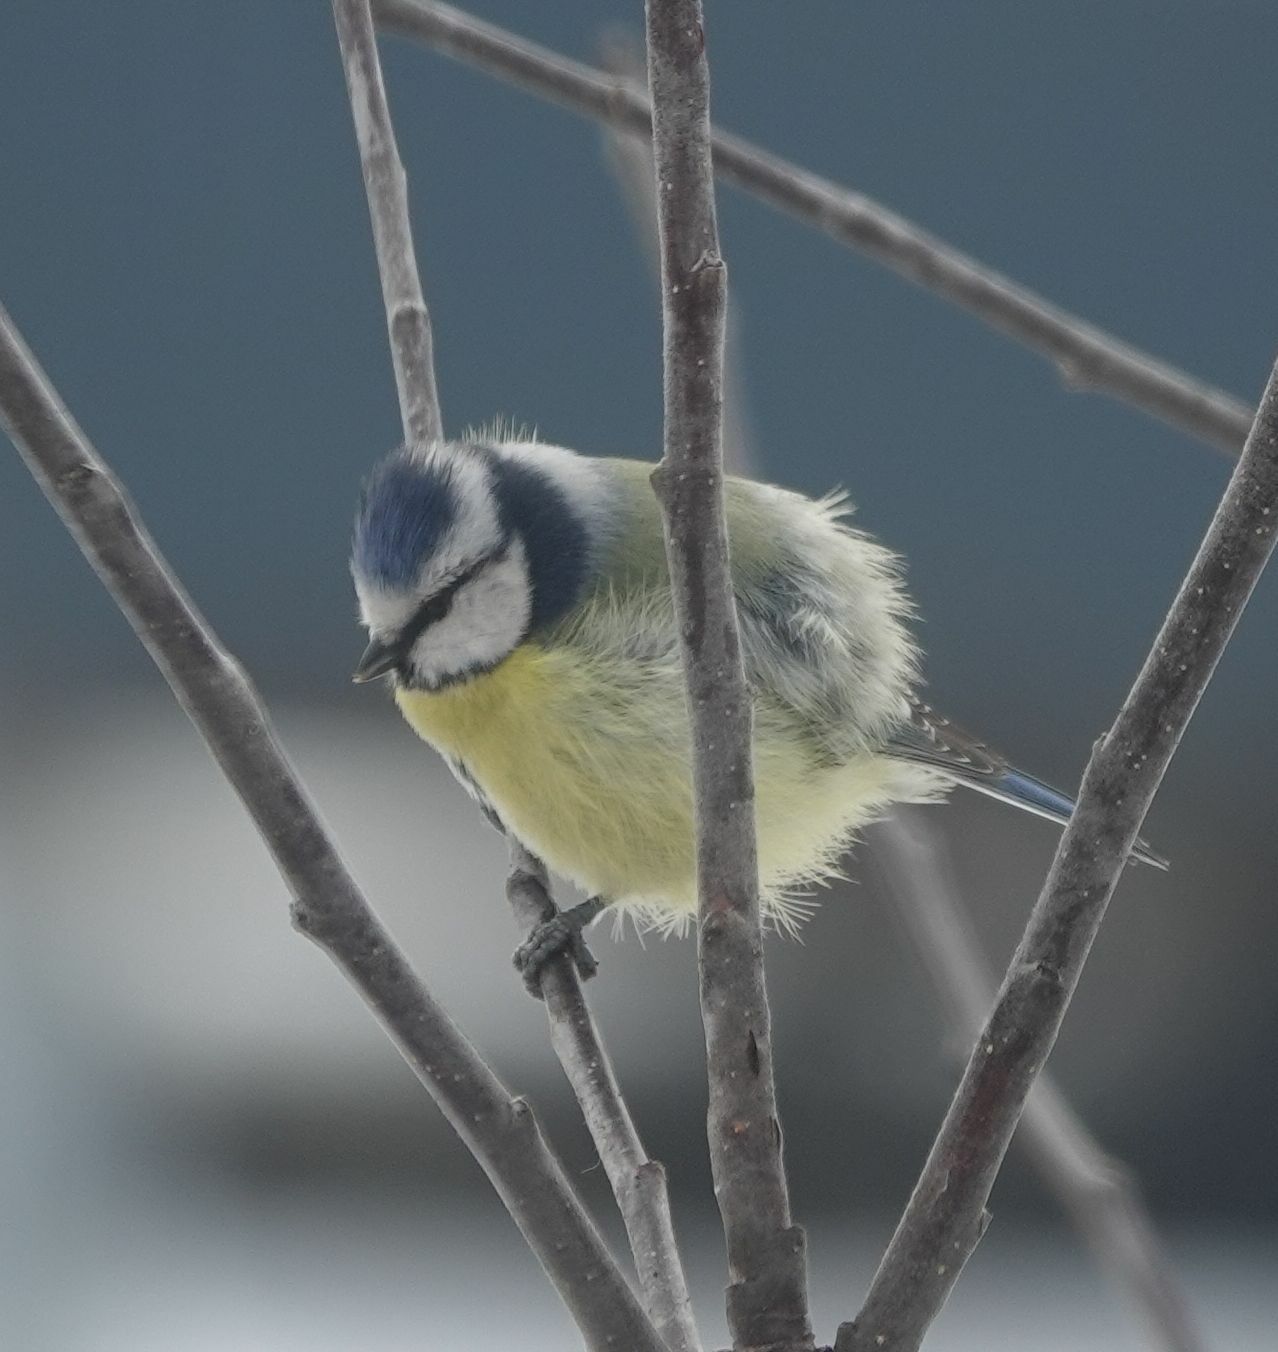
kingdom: Animalia
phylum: Chordata
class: Aves
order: Passeriformes
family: Paridae
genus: Cyanistes
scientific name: Cyanistes caeruleus
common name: Eurasian blue tit
